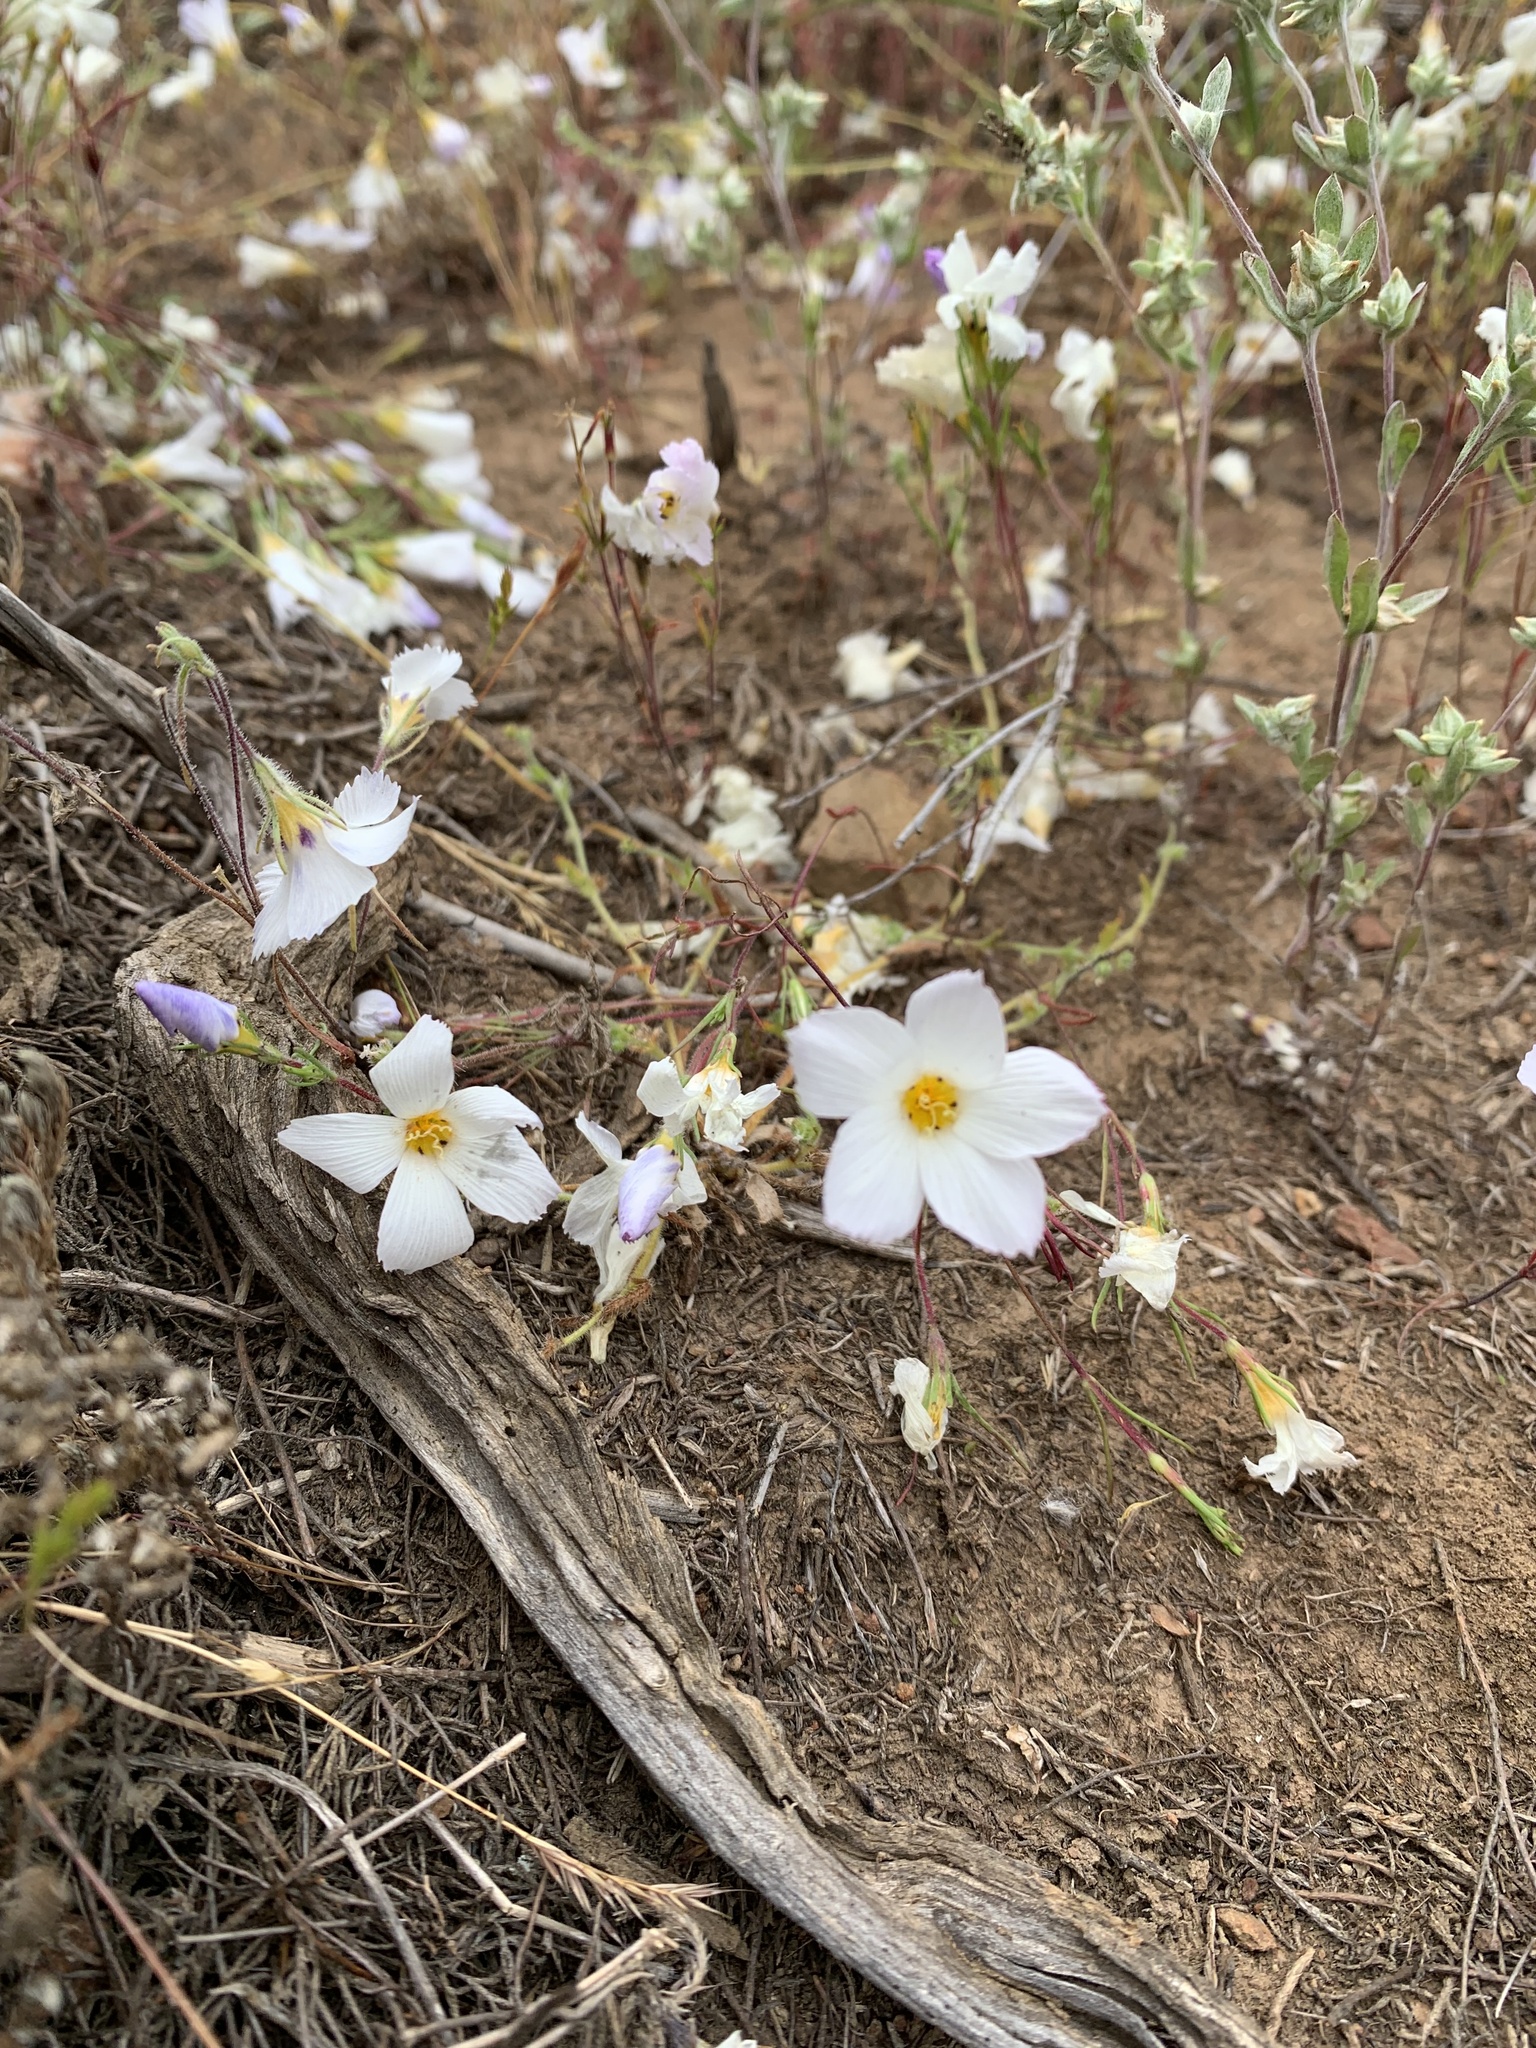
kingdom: Plantae
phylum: Tracheophyta
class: Magnoliopsida
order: Ericales
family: Polemoniaceae
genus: Linanthus
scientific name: Linanthus dianthiflorus
